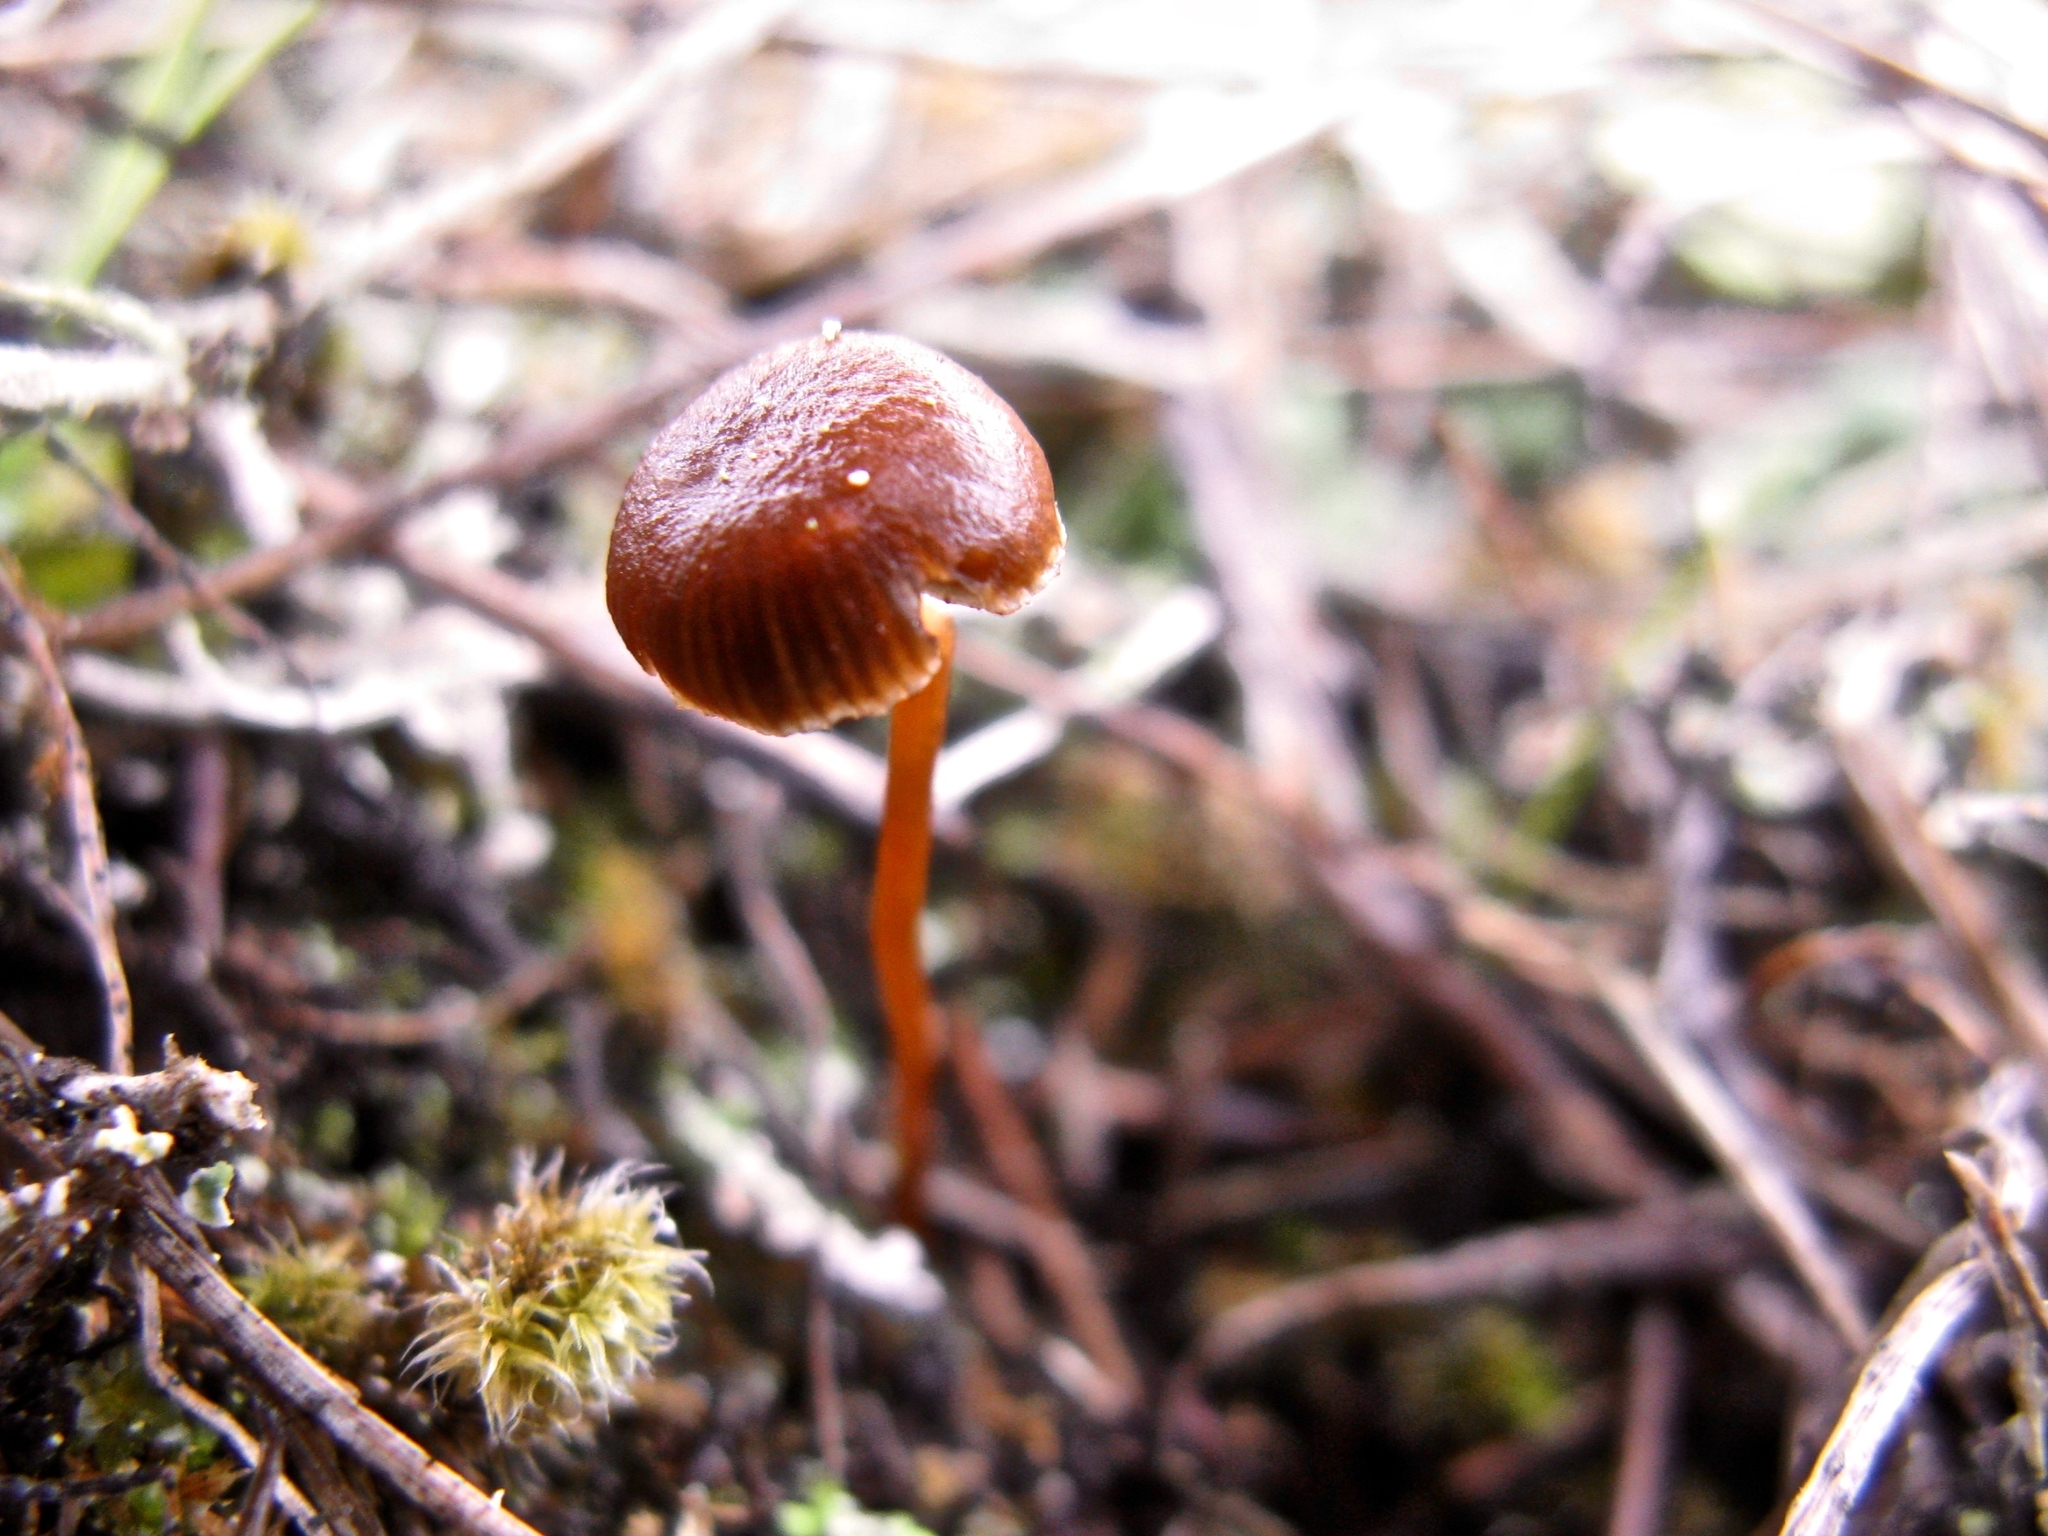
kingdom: Fungi
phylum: Basidiomycota
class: Agaricomycetes
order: Agaricales
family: Strophariaceae
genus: Deconica
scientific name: Deconica montana
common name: Mountain moss deconica
